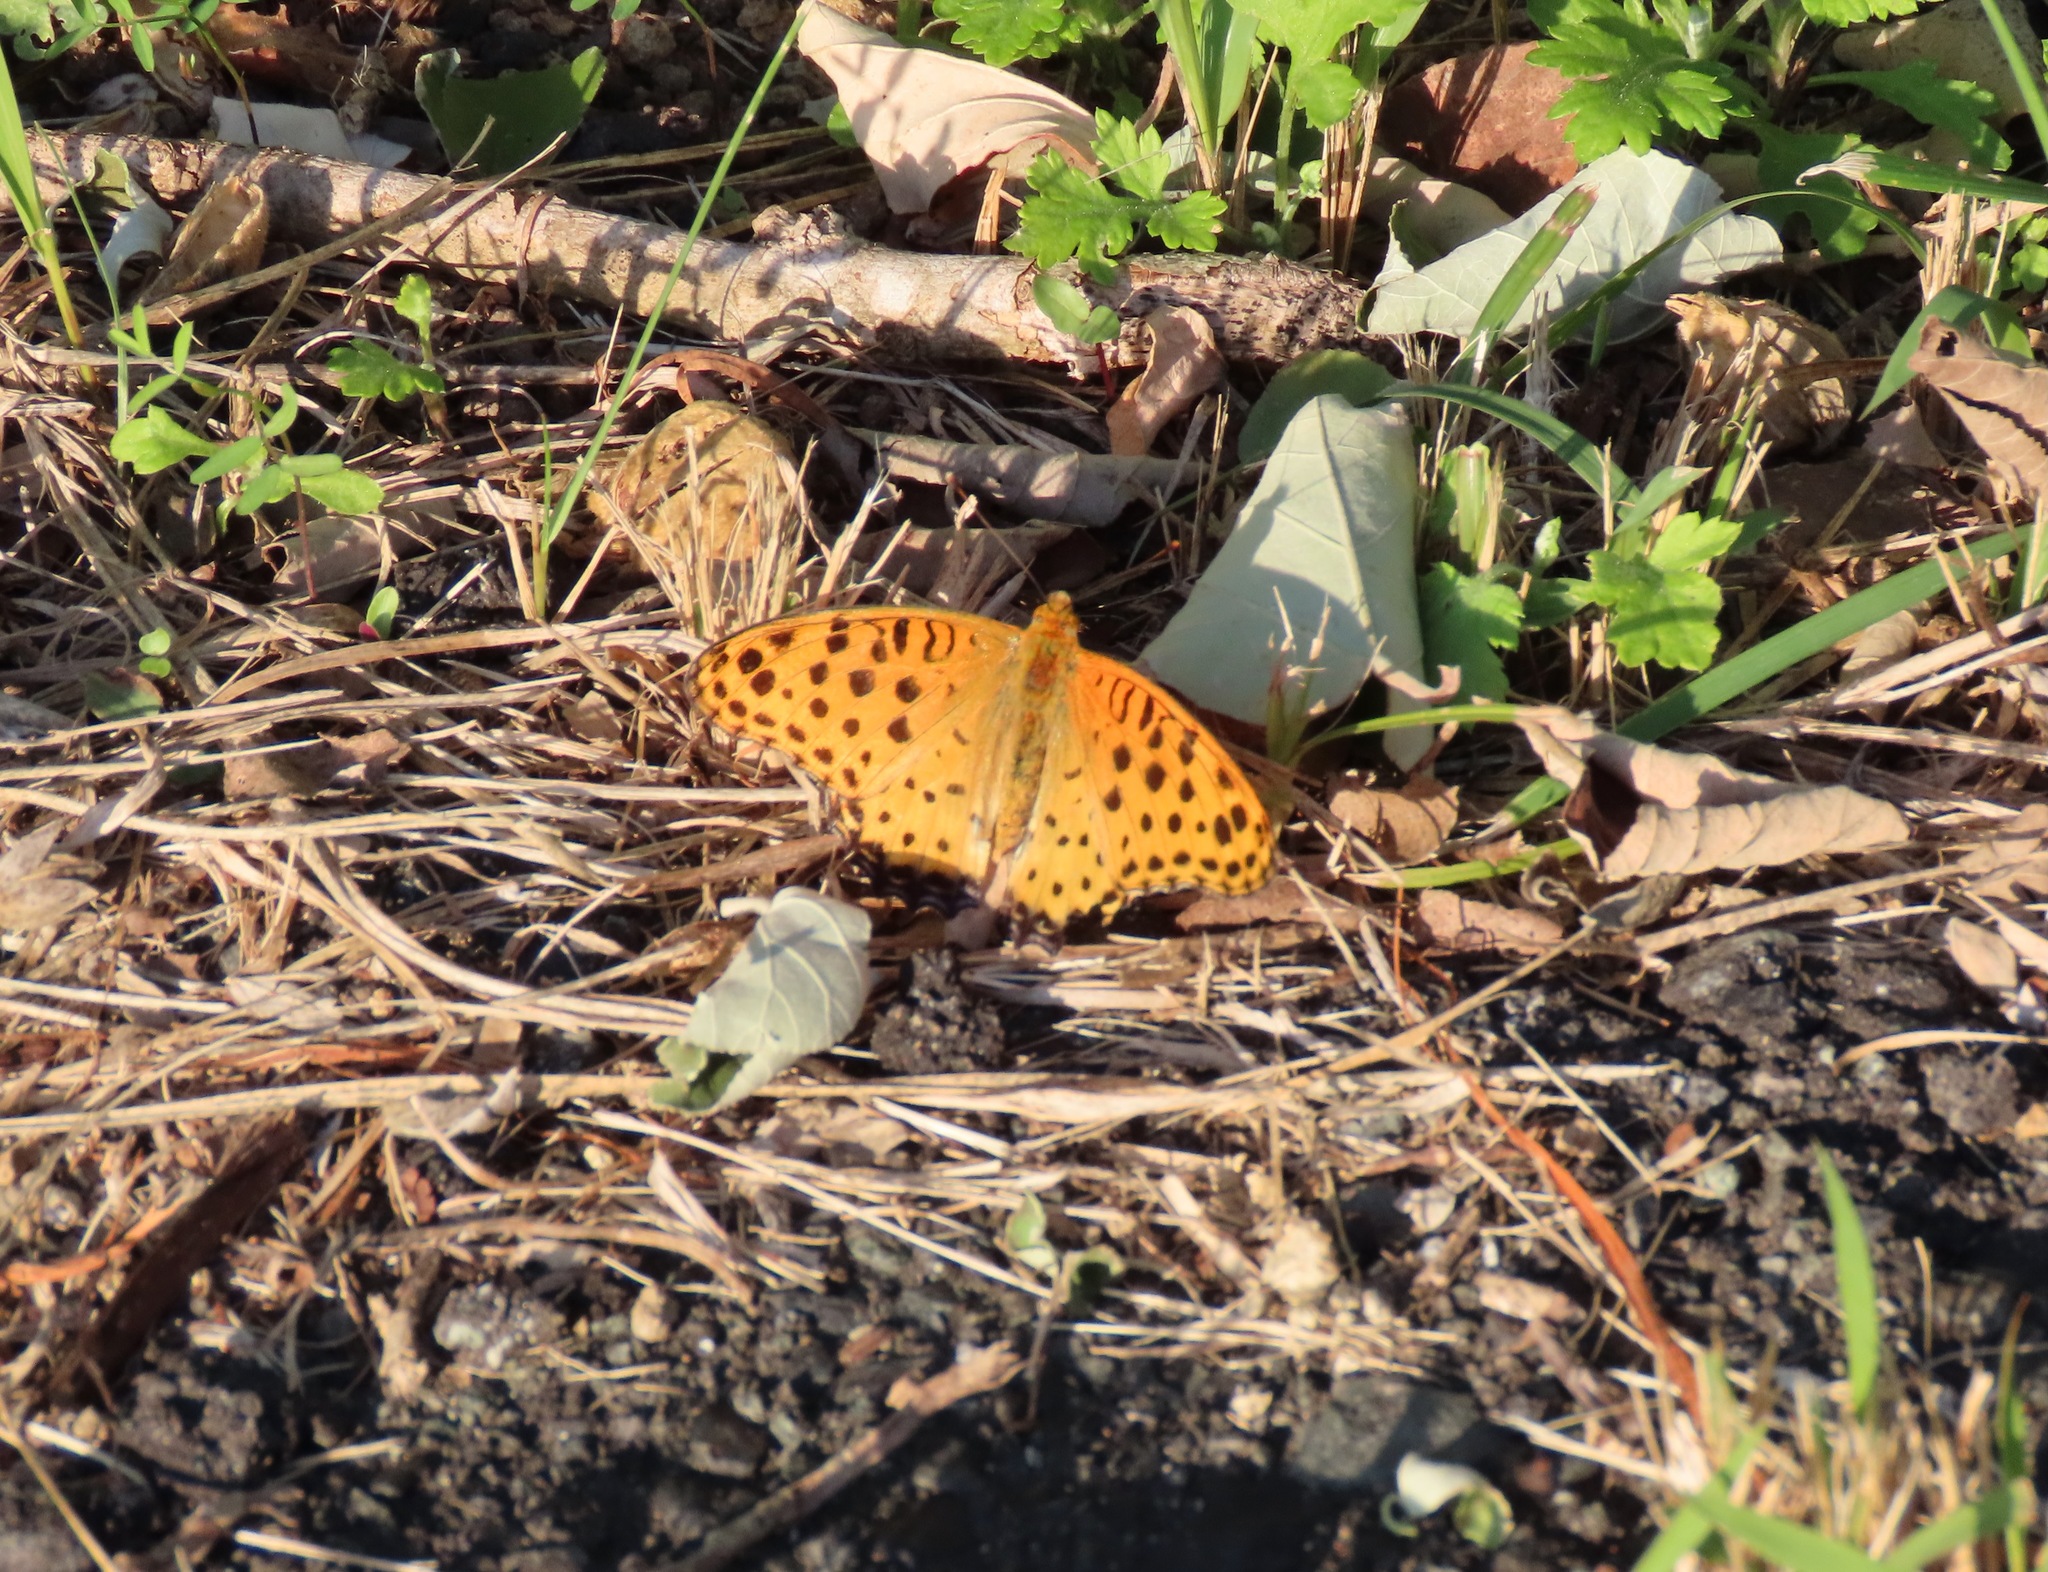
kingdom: Animalia
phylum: Arthropoda
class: Insecta
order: Lepidoptera
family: Nymphalidae
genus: Argynnis
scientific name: Argynnis hyperbius
